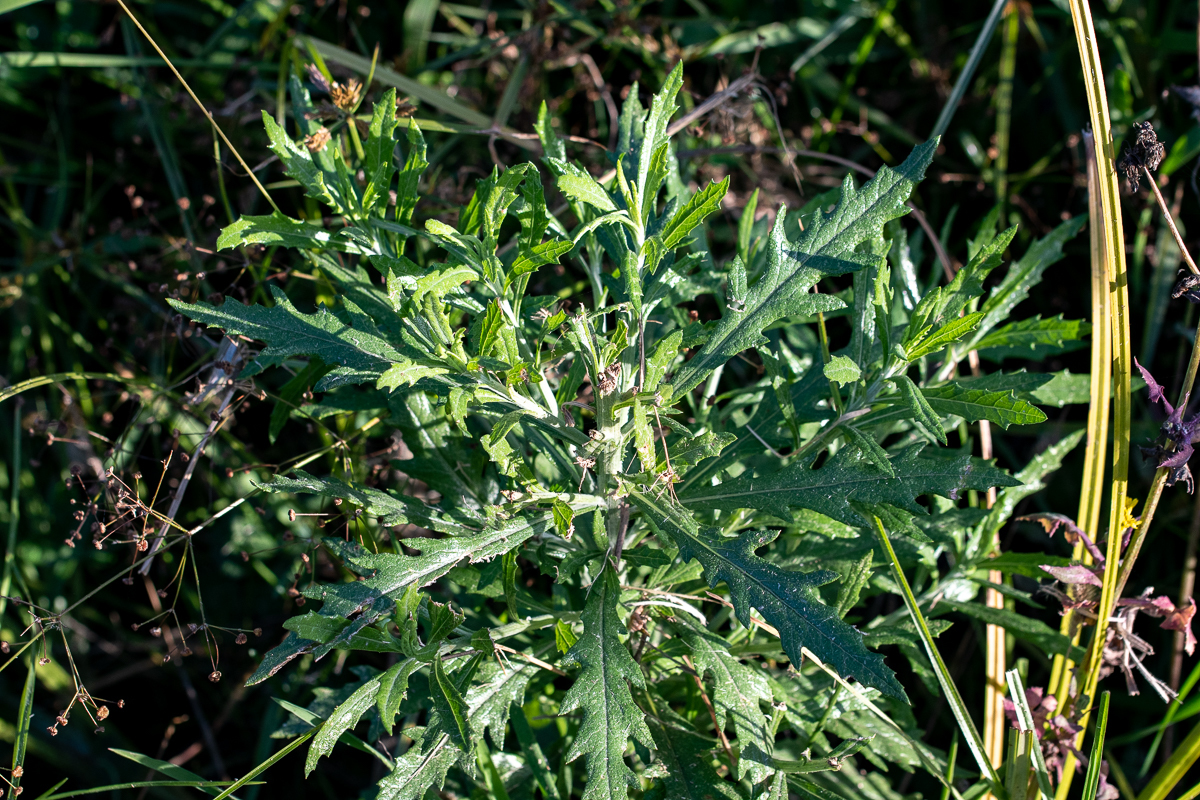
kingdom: Plantae
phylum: Tracheophyta
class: Magnoliopsida
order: Asterales
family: Asteraceae
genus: Senecio
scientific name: Senecio pterophorus
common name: Shoddy ragwort
